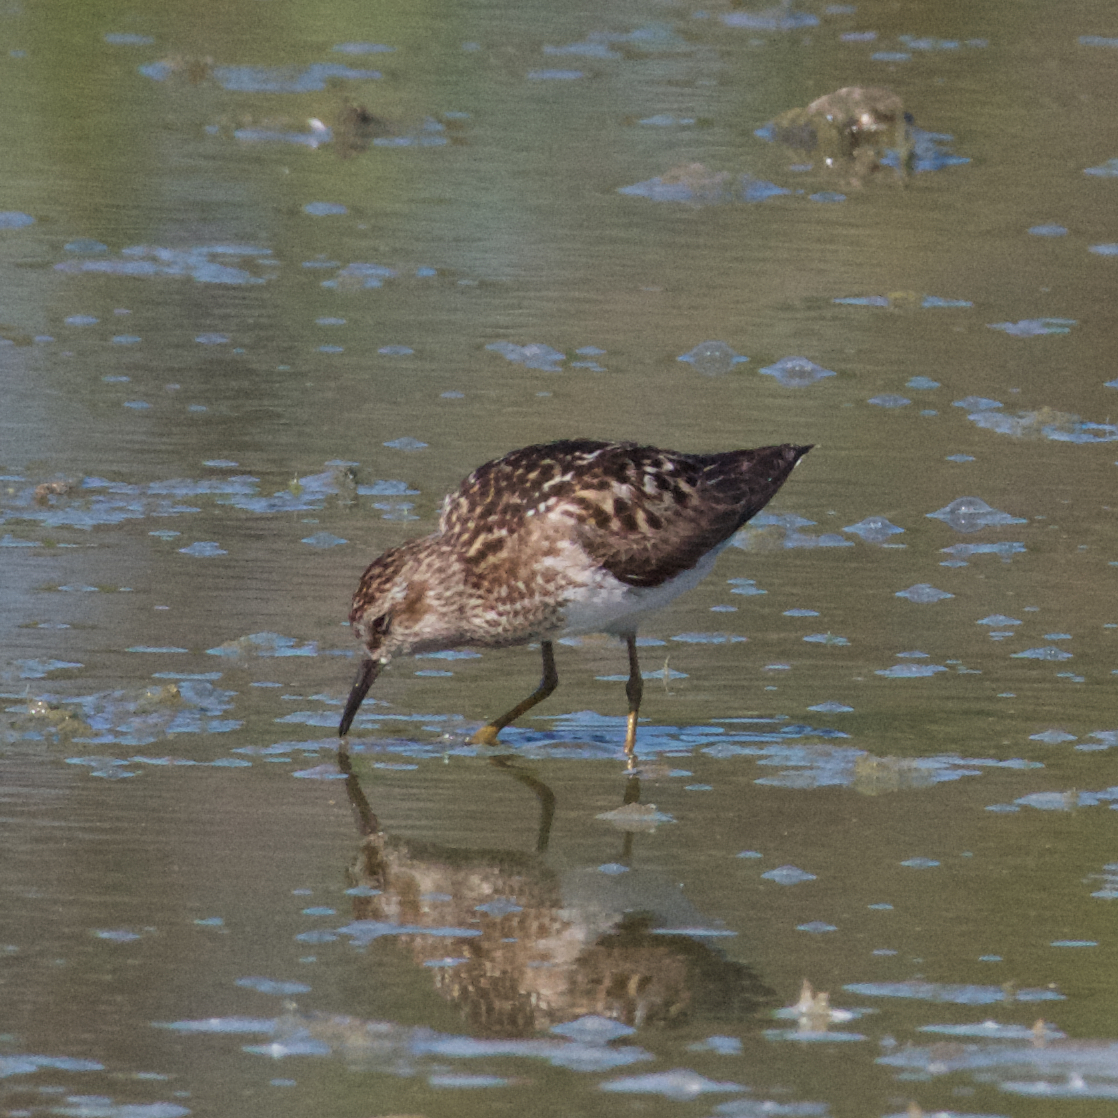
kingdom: Animalia
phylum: Chordata
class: Aves
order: Charadriiformes
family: Scolopacidae
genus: Calidris
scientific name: Calidris minutilla
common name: Least sandpiper
